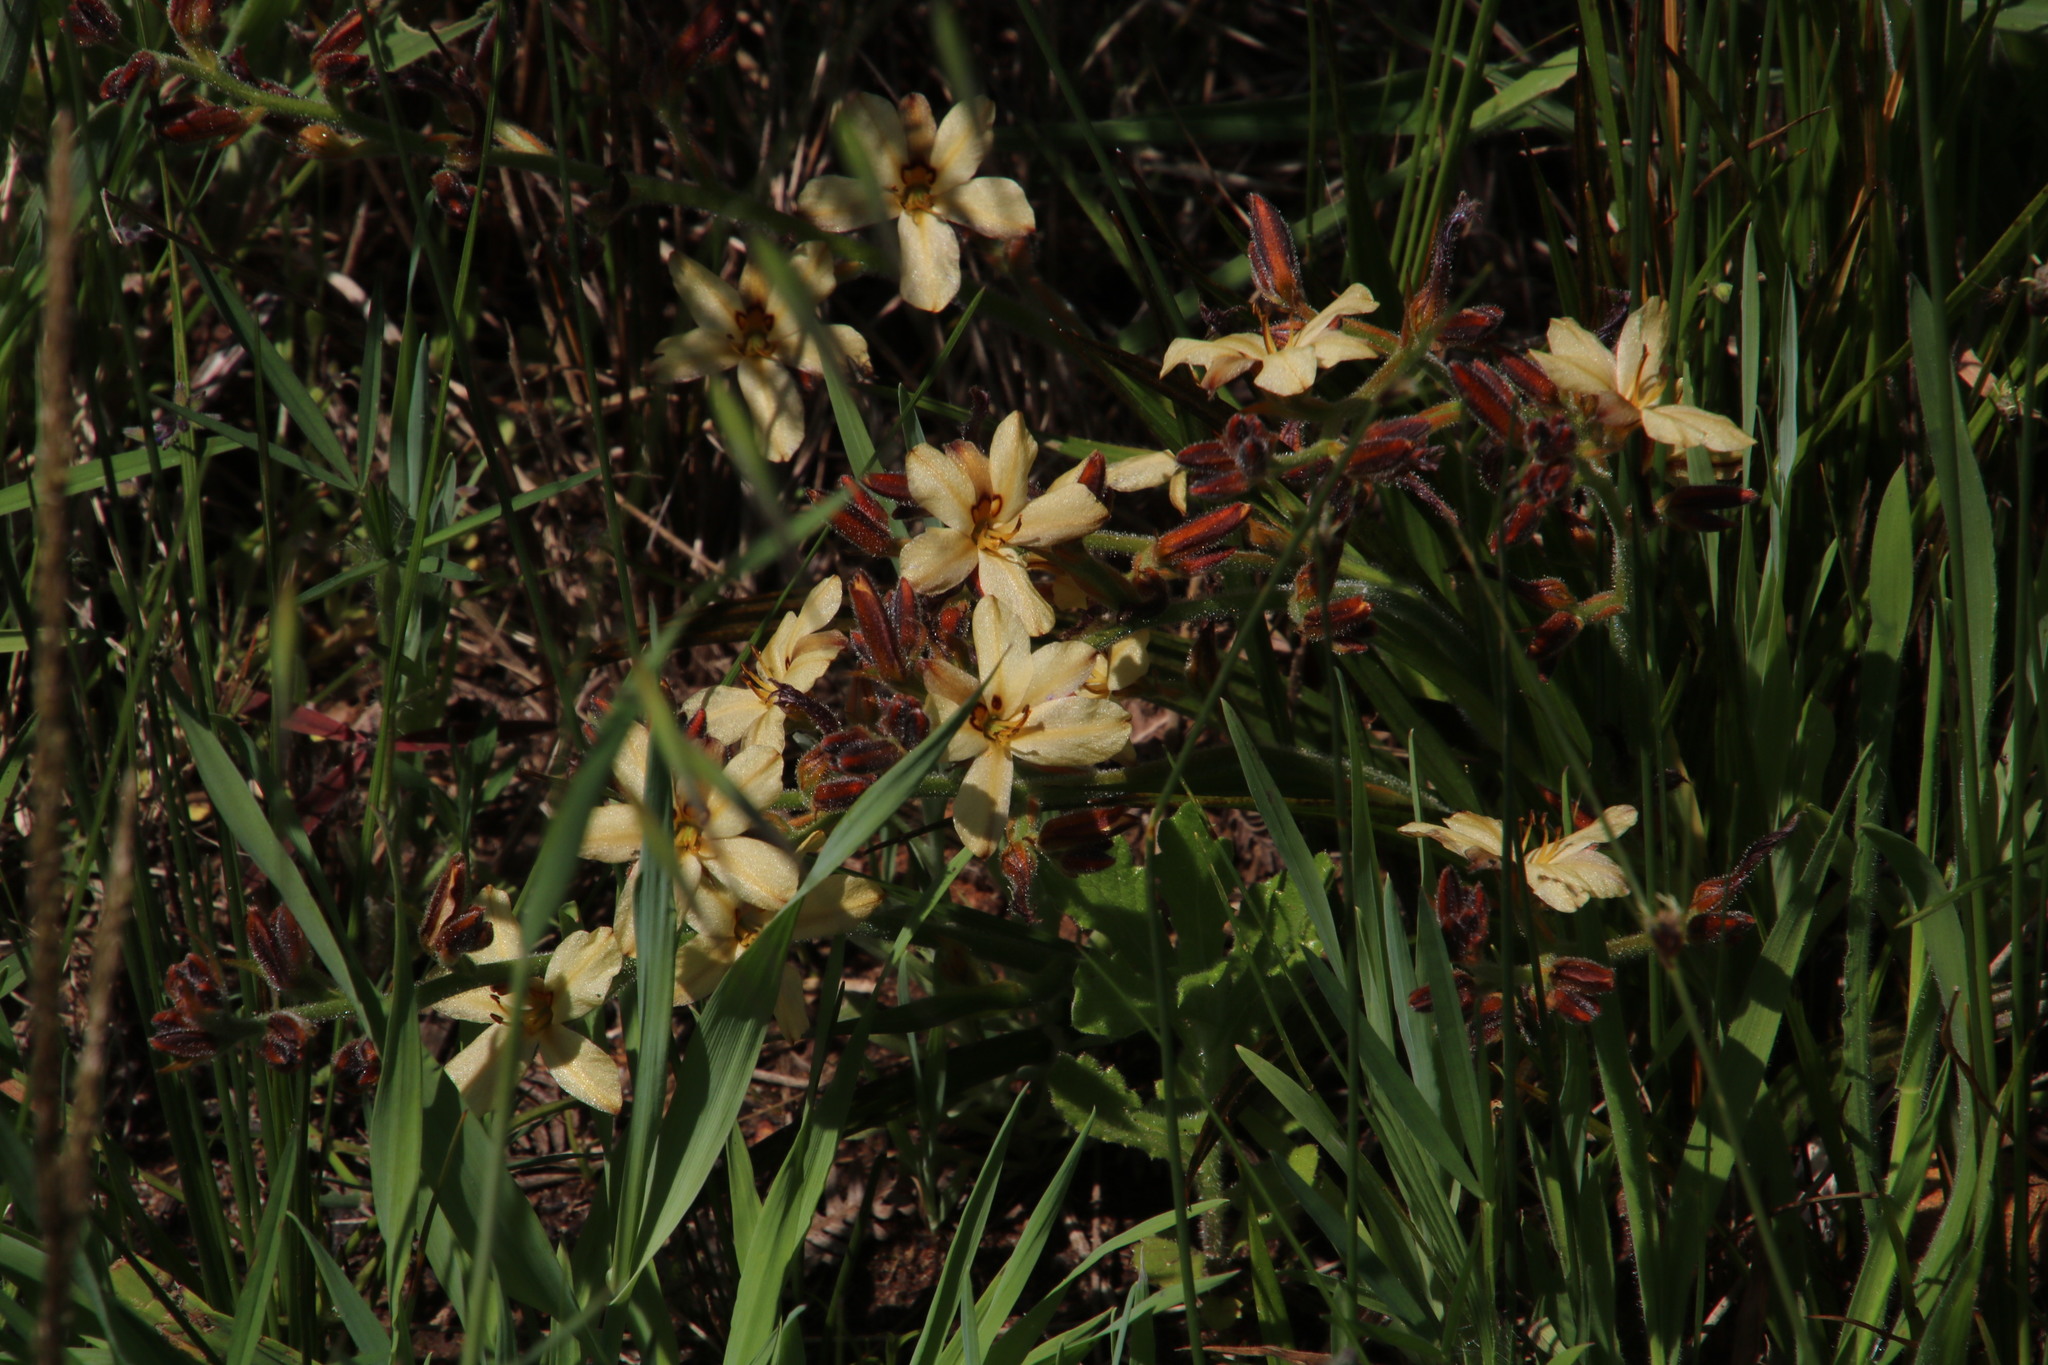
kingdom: Plantae
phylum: Tracheophyta
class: Liliopsida
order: Commelinales
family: Haemodoraceae
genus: Wachendorfia
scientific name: Wachendorfia brachyandra
